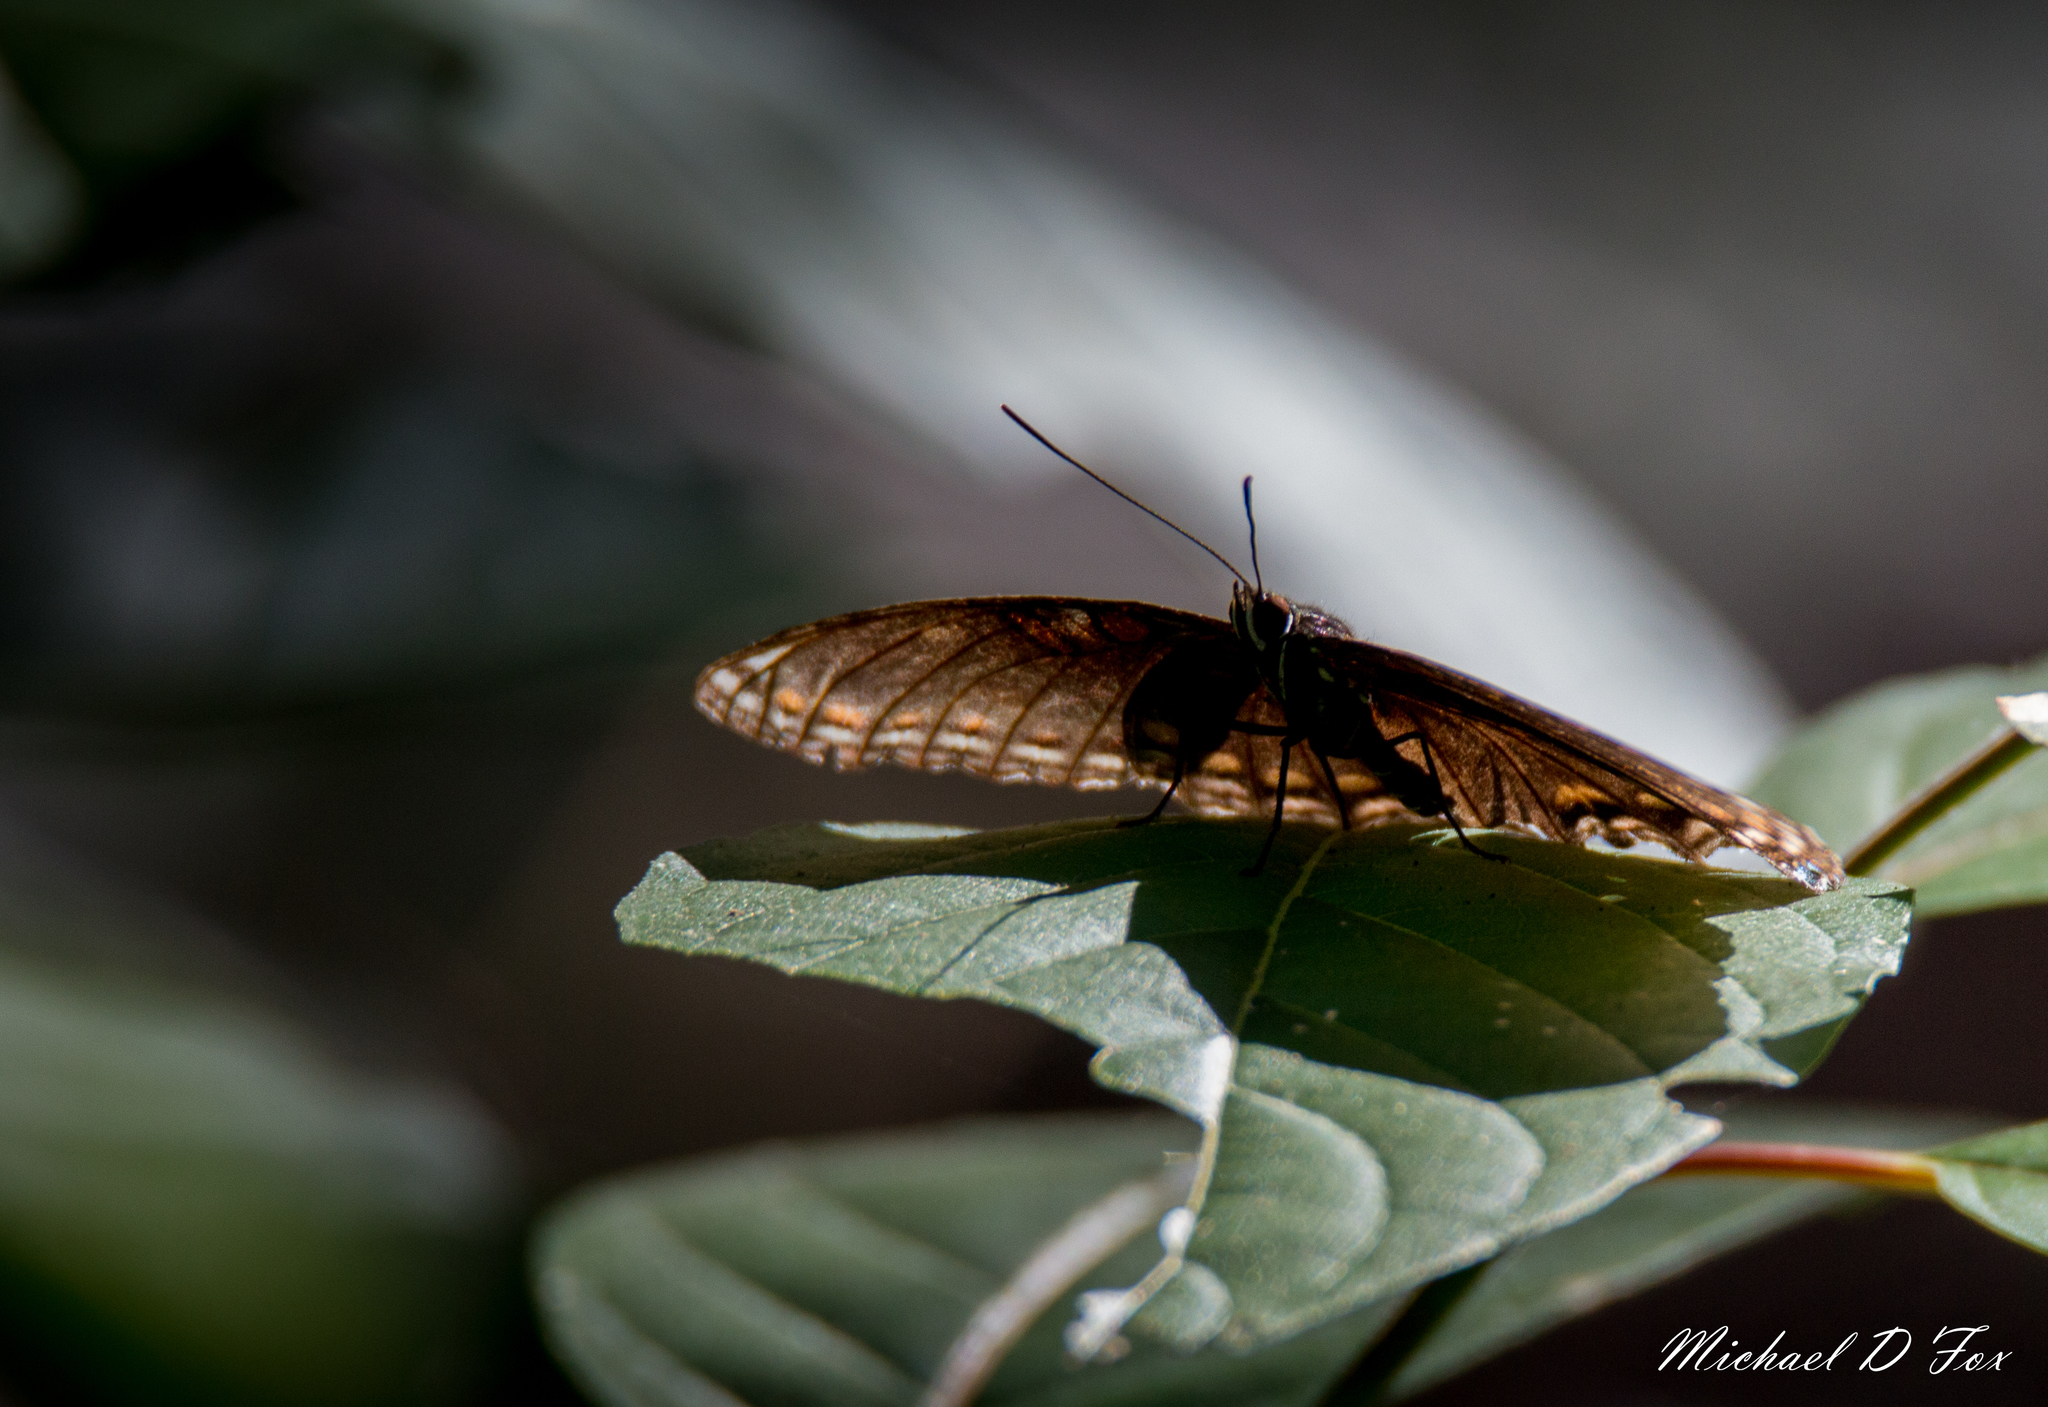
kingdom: Animalia
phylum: Arthropoda
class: Insecta
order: Lepidoptera
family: Nymphalidae
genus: Limenitis
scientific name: Limenitis astyanax
